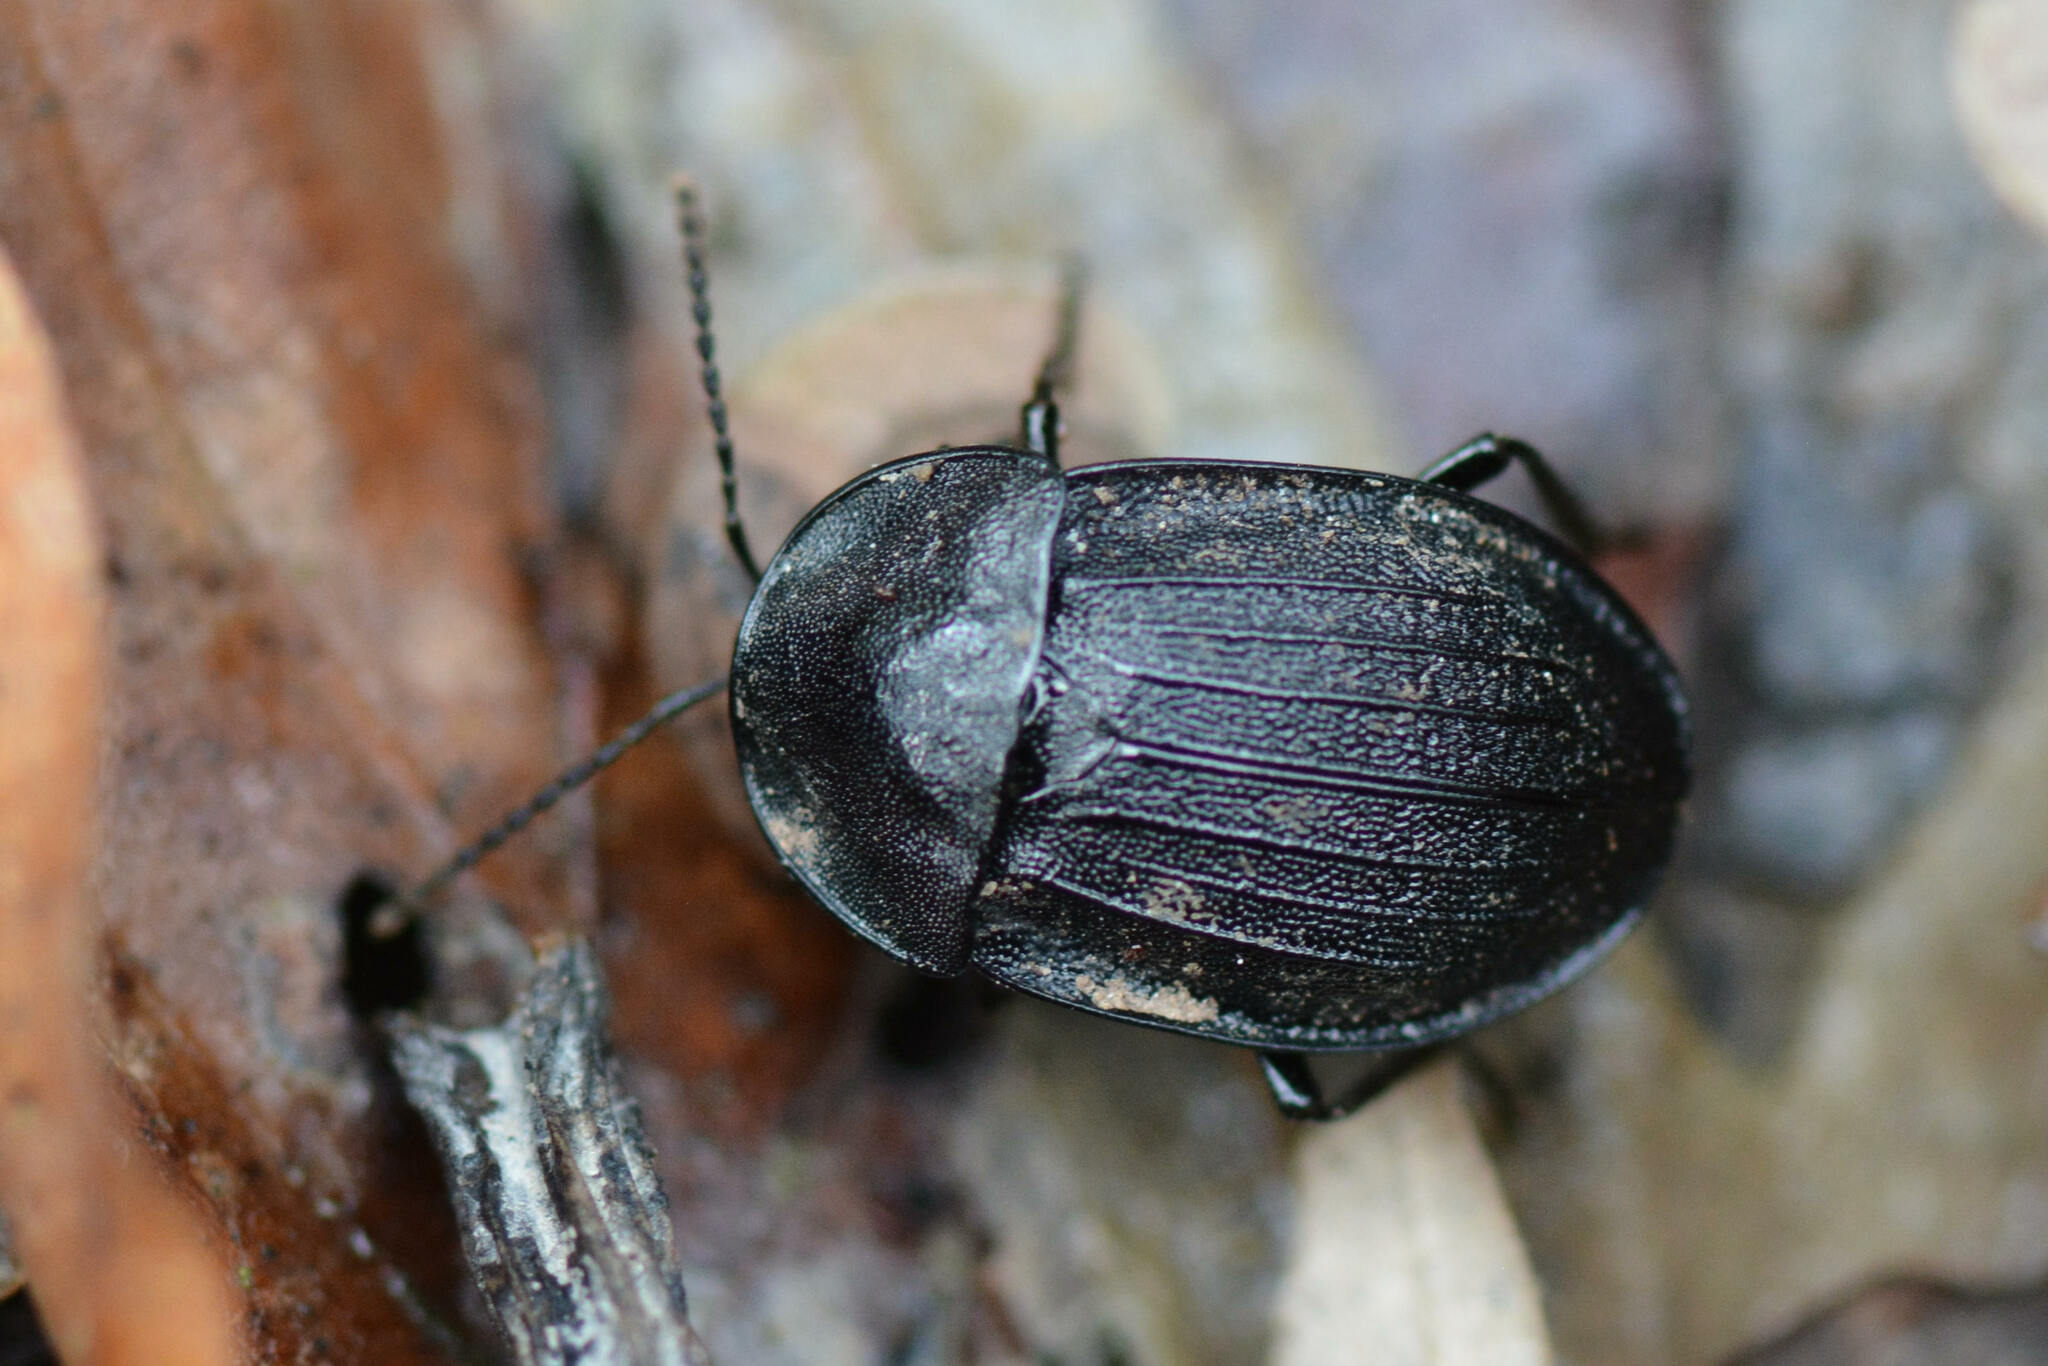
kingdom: Animalia
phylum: Arthropoda
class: Insecta
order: Coleoptera
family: Staphylinidae
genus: Silpha
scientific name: Silpha atrata
